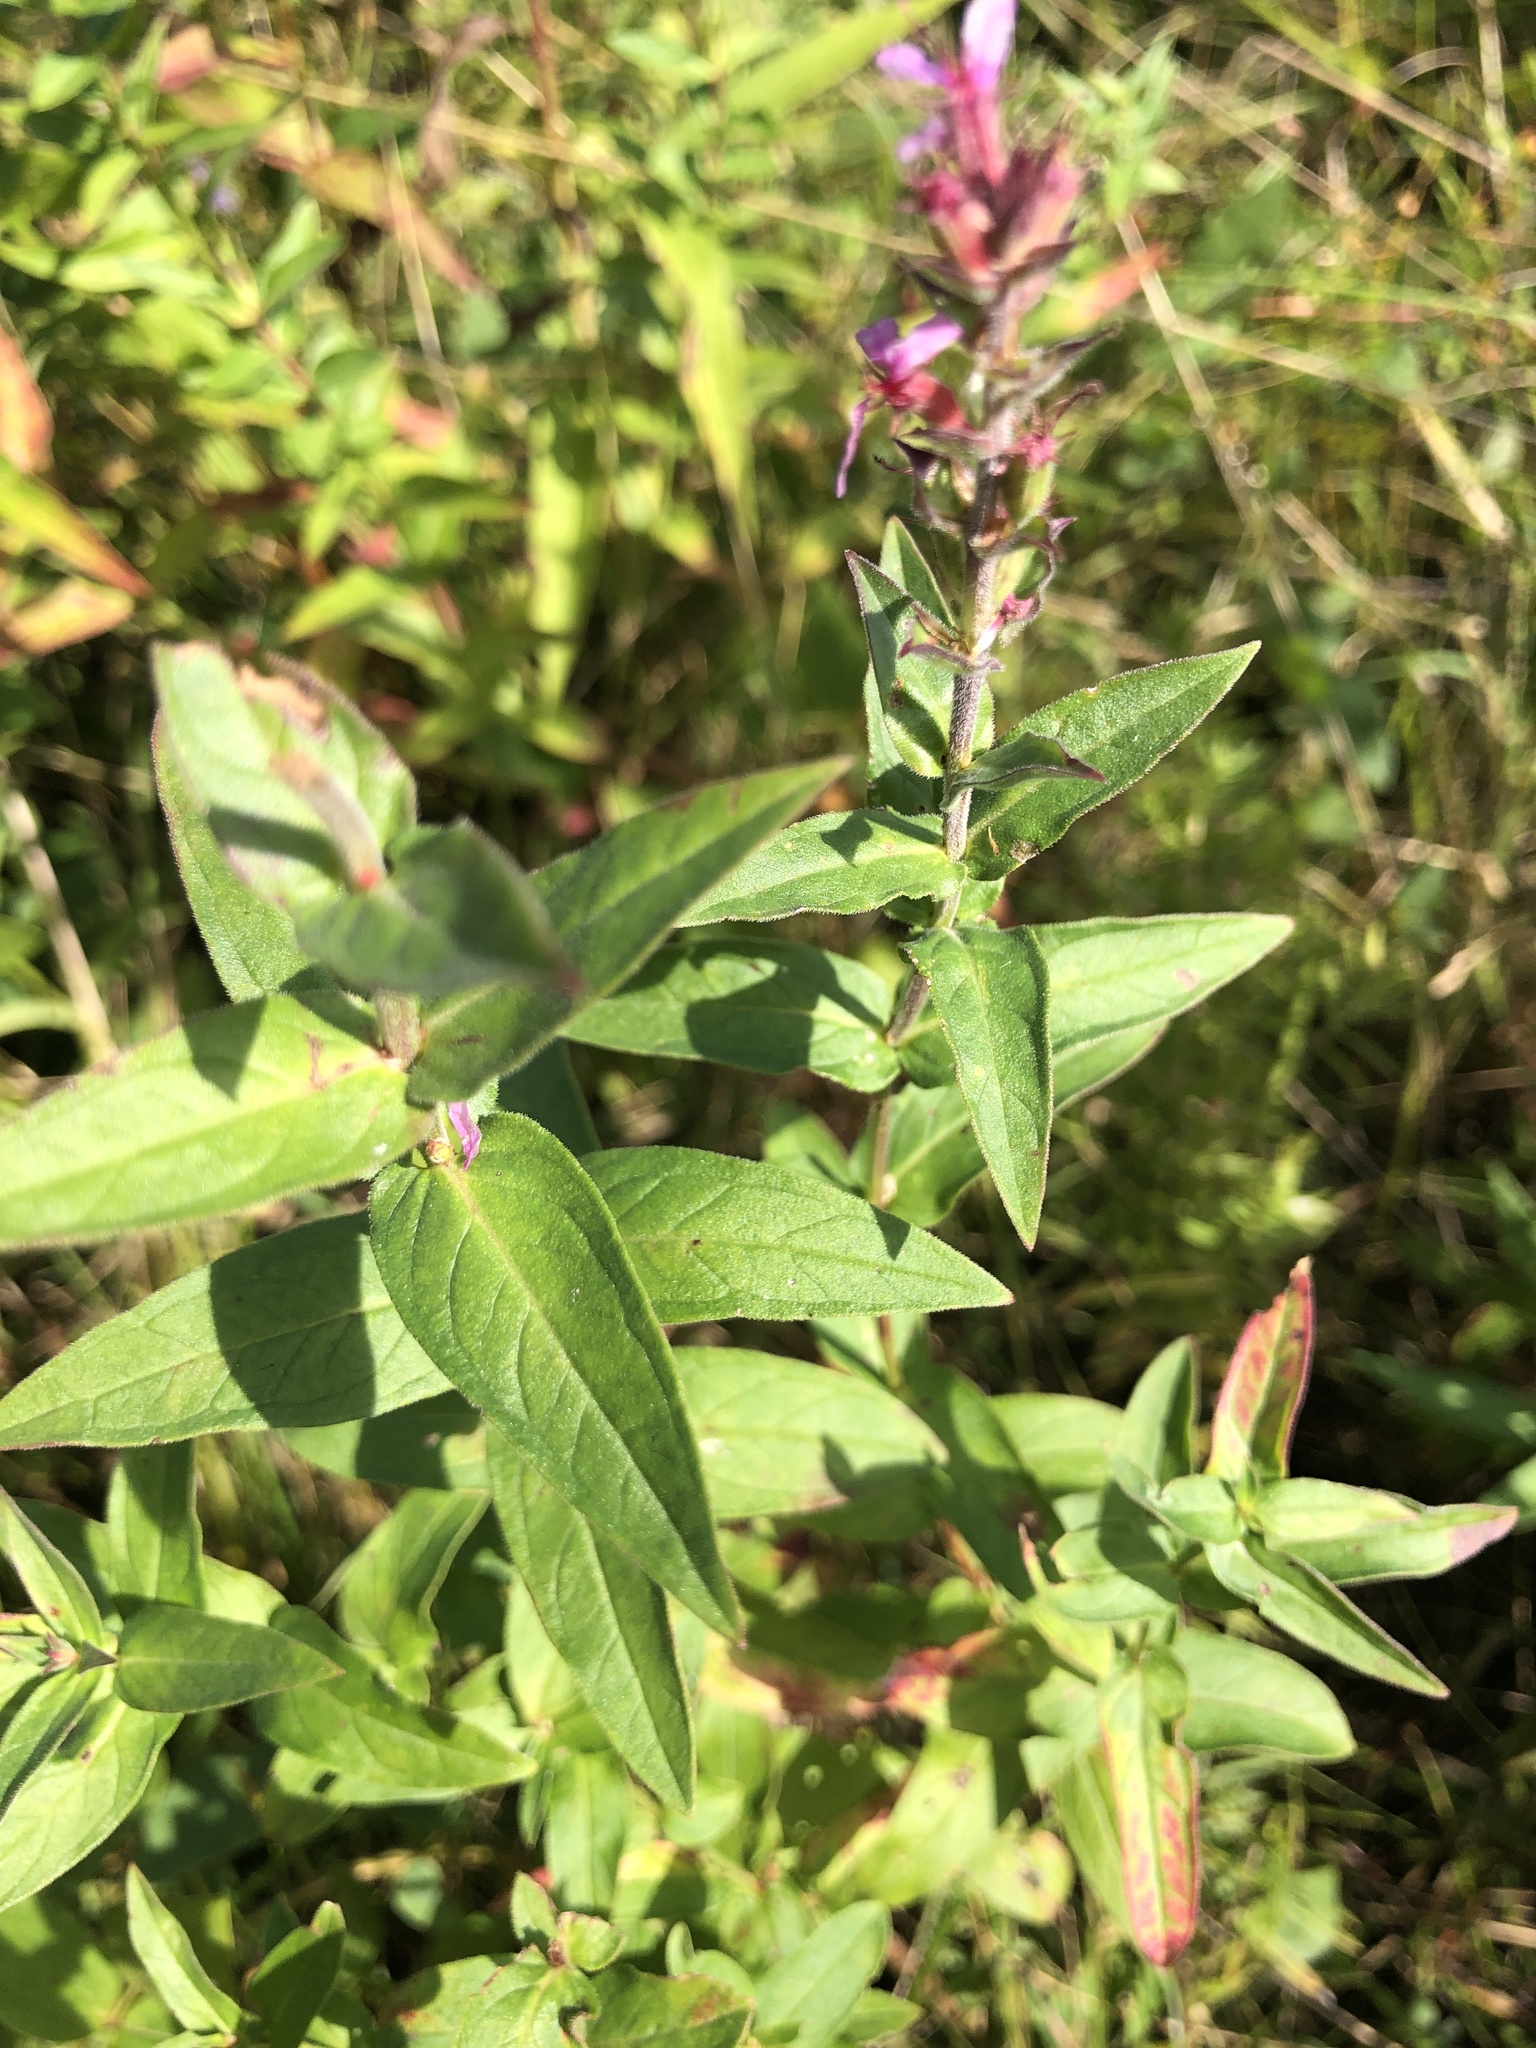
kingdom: Plantae
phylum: Tracheophyta
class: Magnoliopsida
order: Myrtales
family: Lythraceae
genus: Lythrum
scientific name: Lythrum salicaria
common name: Purple loosestrife
